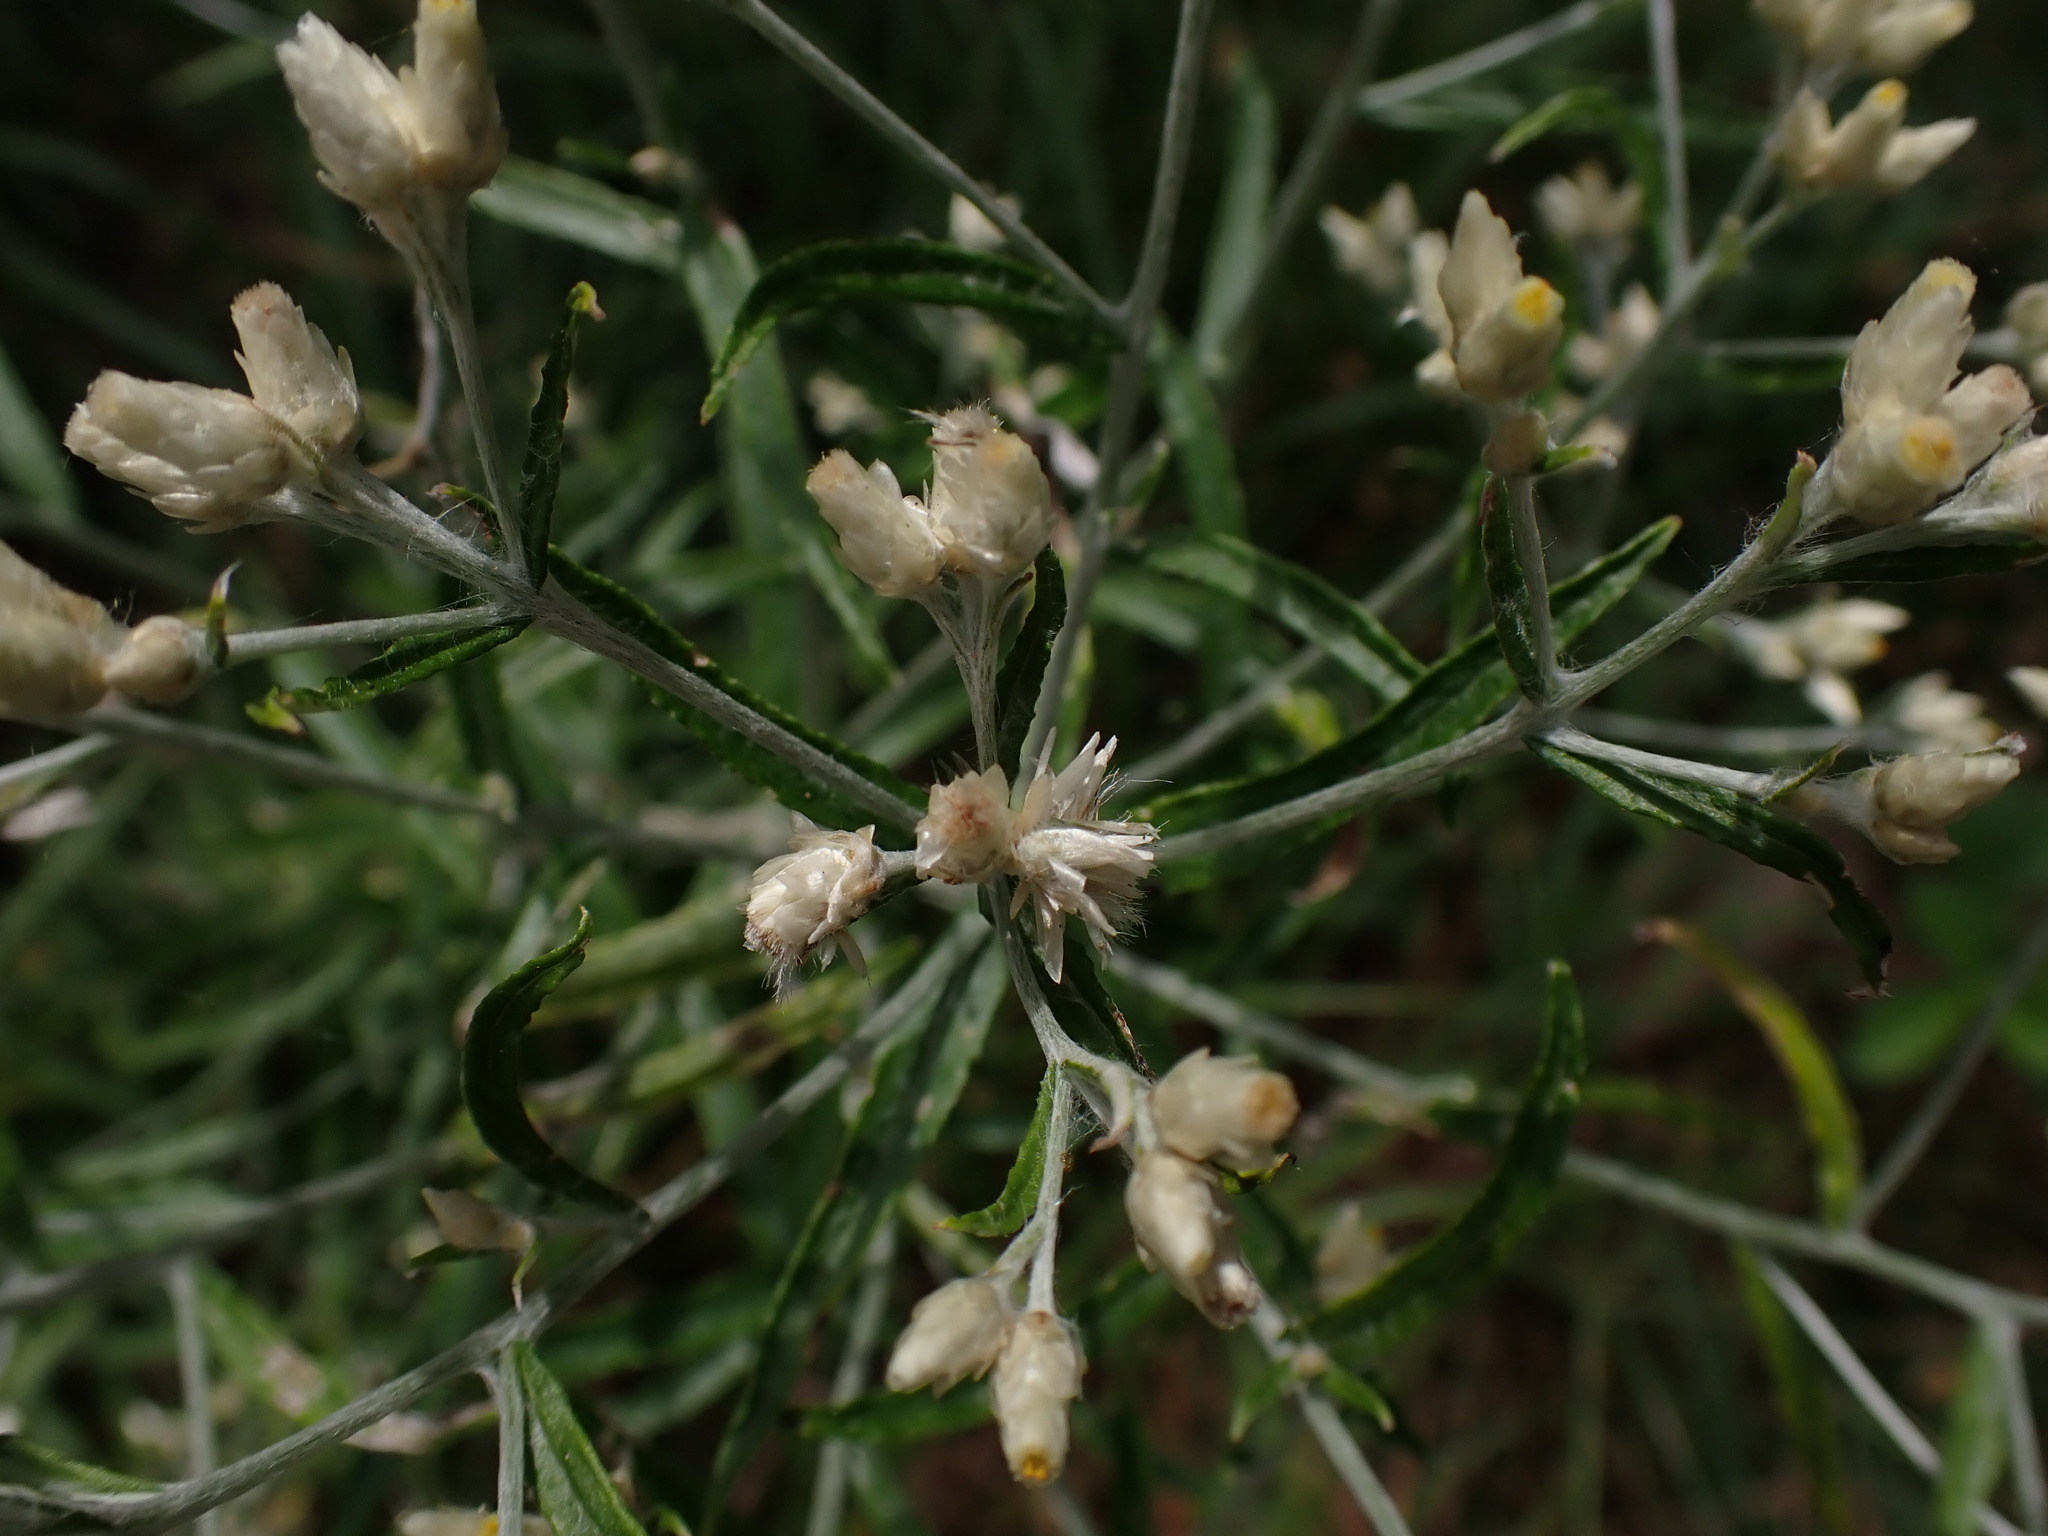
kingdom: Plantae
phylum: Tracheophyta
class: Magnoliopsida
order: Asterales
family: Asteraceae
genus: Pseudognaphalium
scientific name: Pseudognaphalium obtusifolium
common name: Eastern rabbit-tobacco
